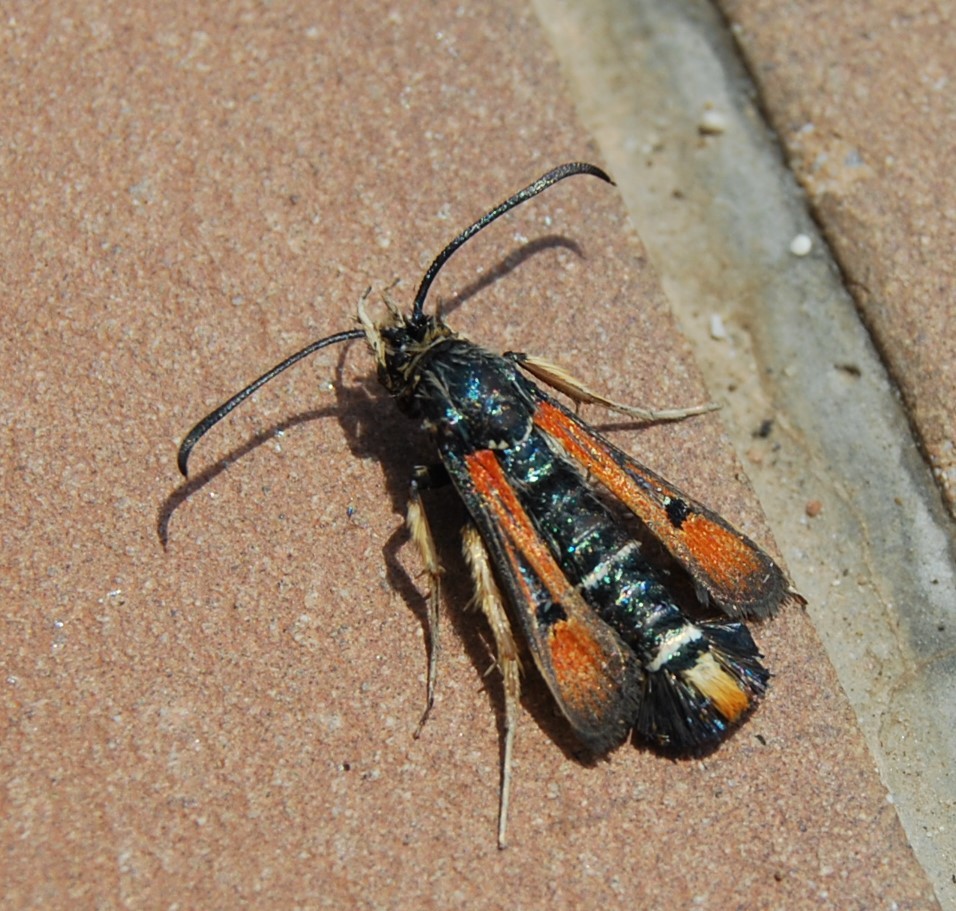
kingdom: Animalia
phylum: Arthropoda
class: Insecta
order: Lepidoptera
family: Sesiidae
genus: Pyropteron
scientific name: Pyropteron chrysidiforme
